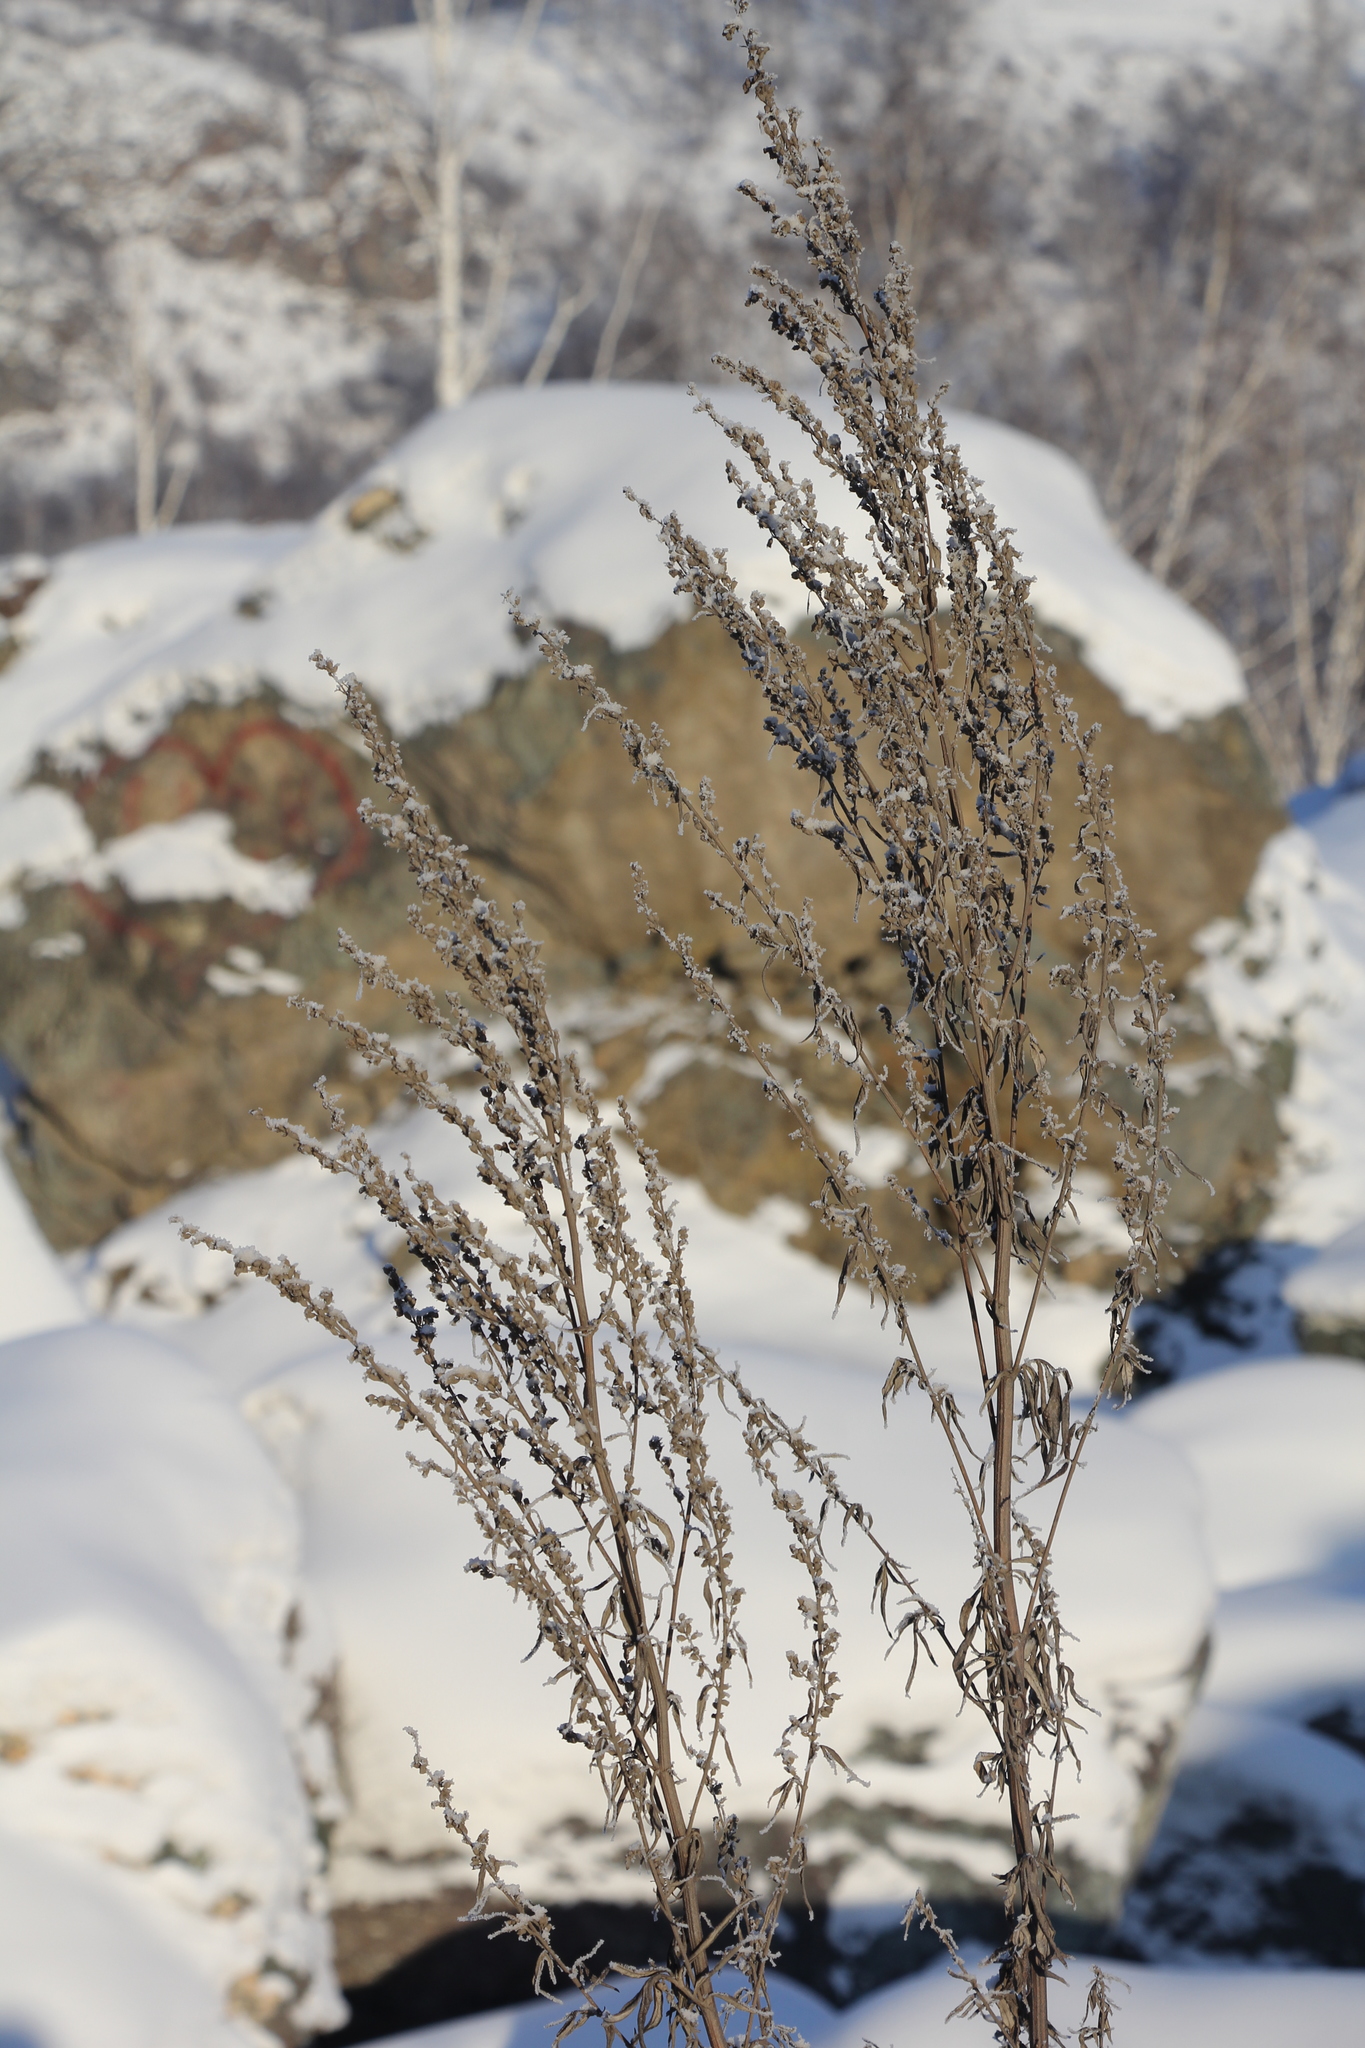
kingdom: Plantae
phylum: Tracheophyta
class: Magnoliopsida
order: Asterales
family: Asteraceae
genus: Artemisia
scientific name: Artemisia vulgaris
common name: Mugwort
